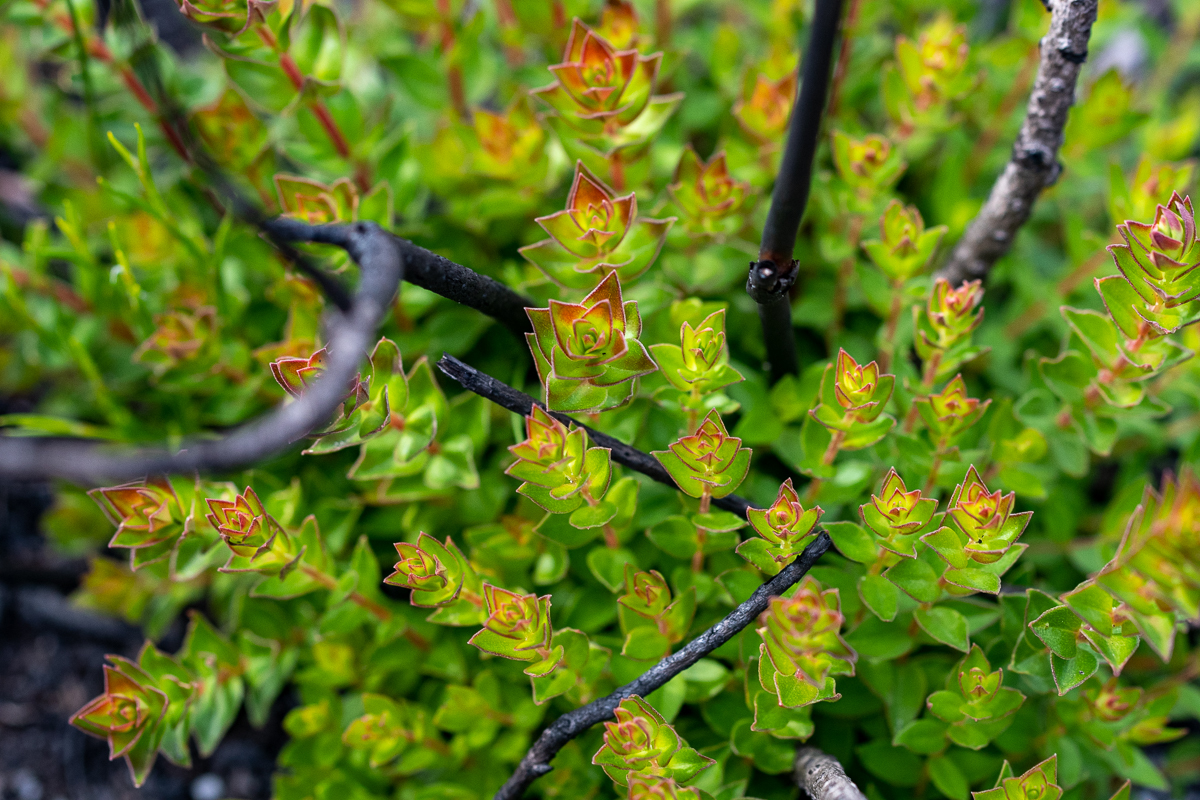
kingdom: Plantae
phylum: Tracheophyta
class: Magnoliopsida
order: Myrtales
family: Penaeaceae
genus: Penaea
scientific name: Penaea mucronata
